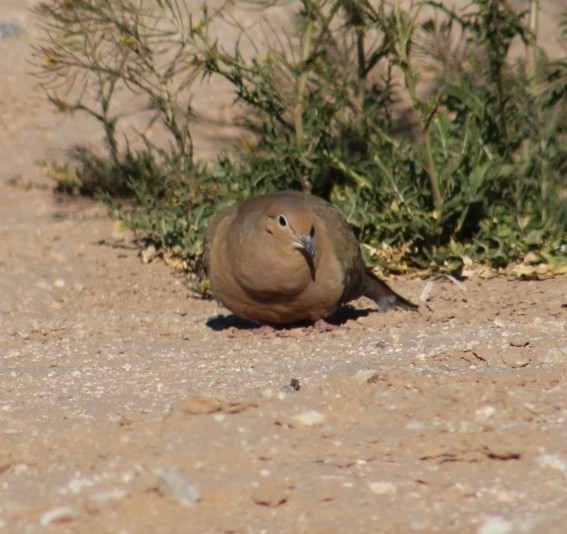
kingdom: Animalia
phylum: Chordata
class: Aves
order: Columbiformes
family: Columbidae
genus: Zenaida
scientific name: Zenaida macroura
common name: Mourning dove
